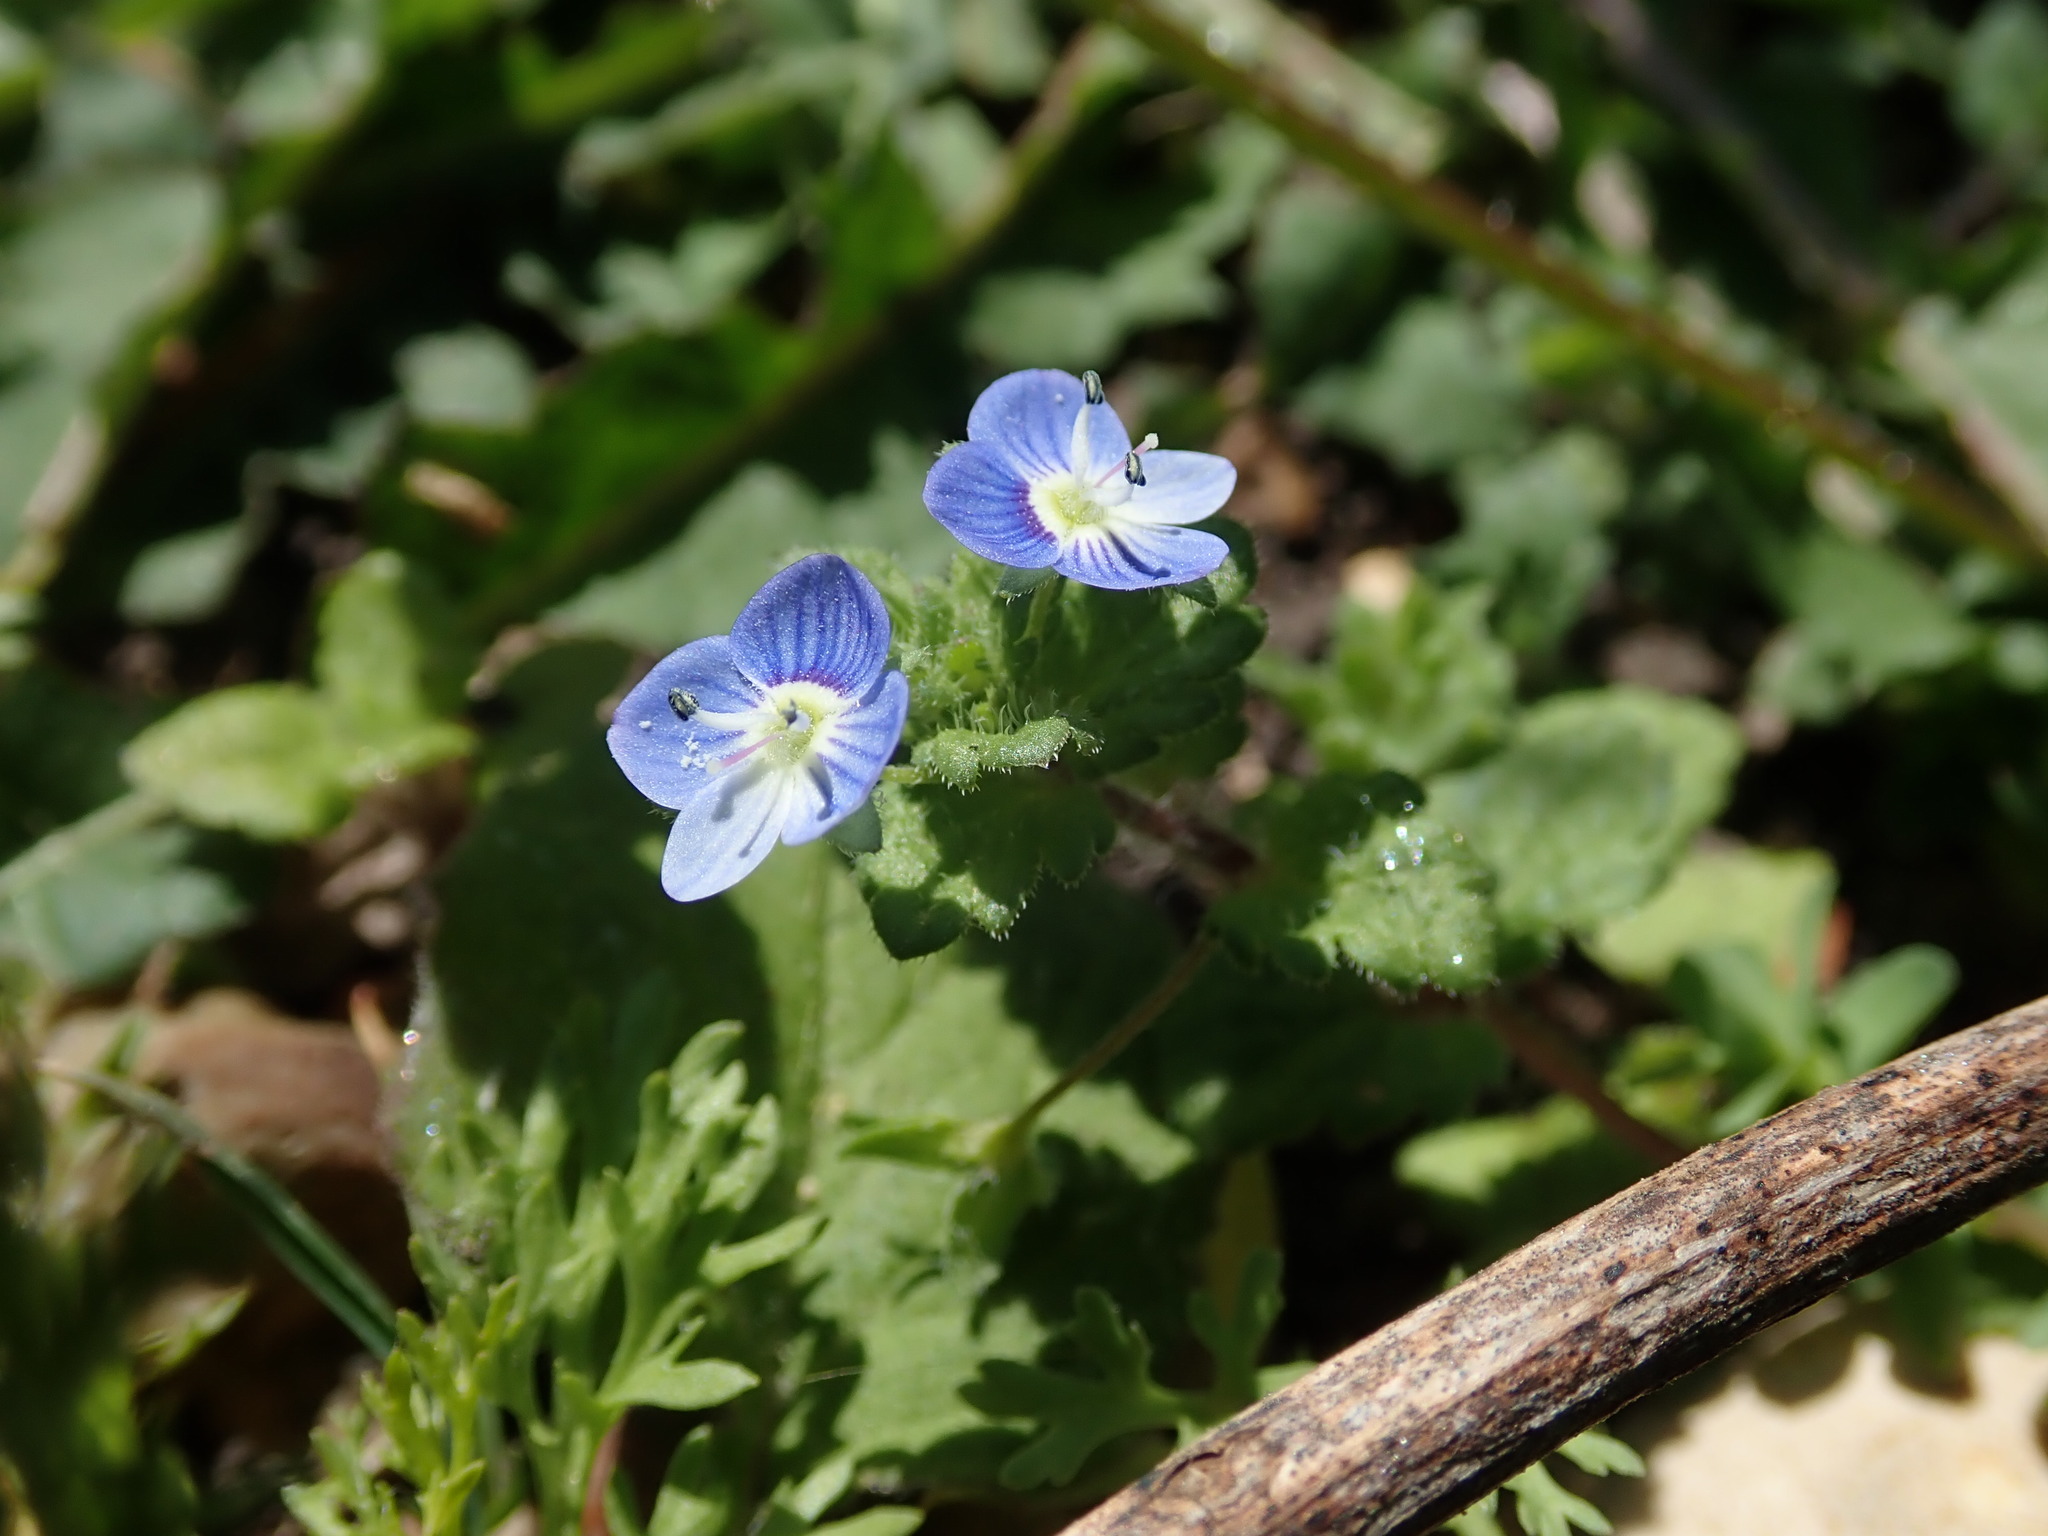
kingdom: Plantae
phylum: Tracheophyta
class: Magnoliopsida
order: Lamiales
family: Plantaginaceae
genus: Veronica
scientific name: Veronica persica
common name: Common field-speedwell
